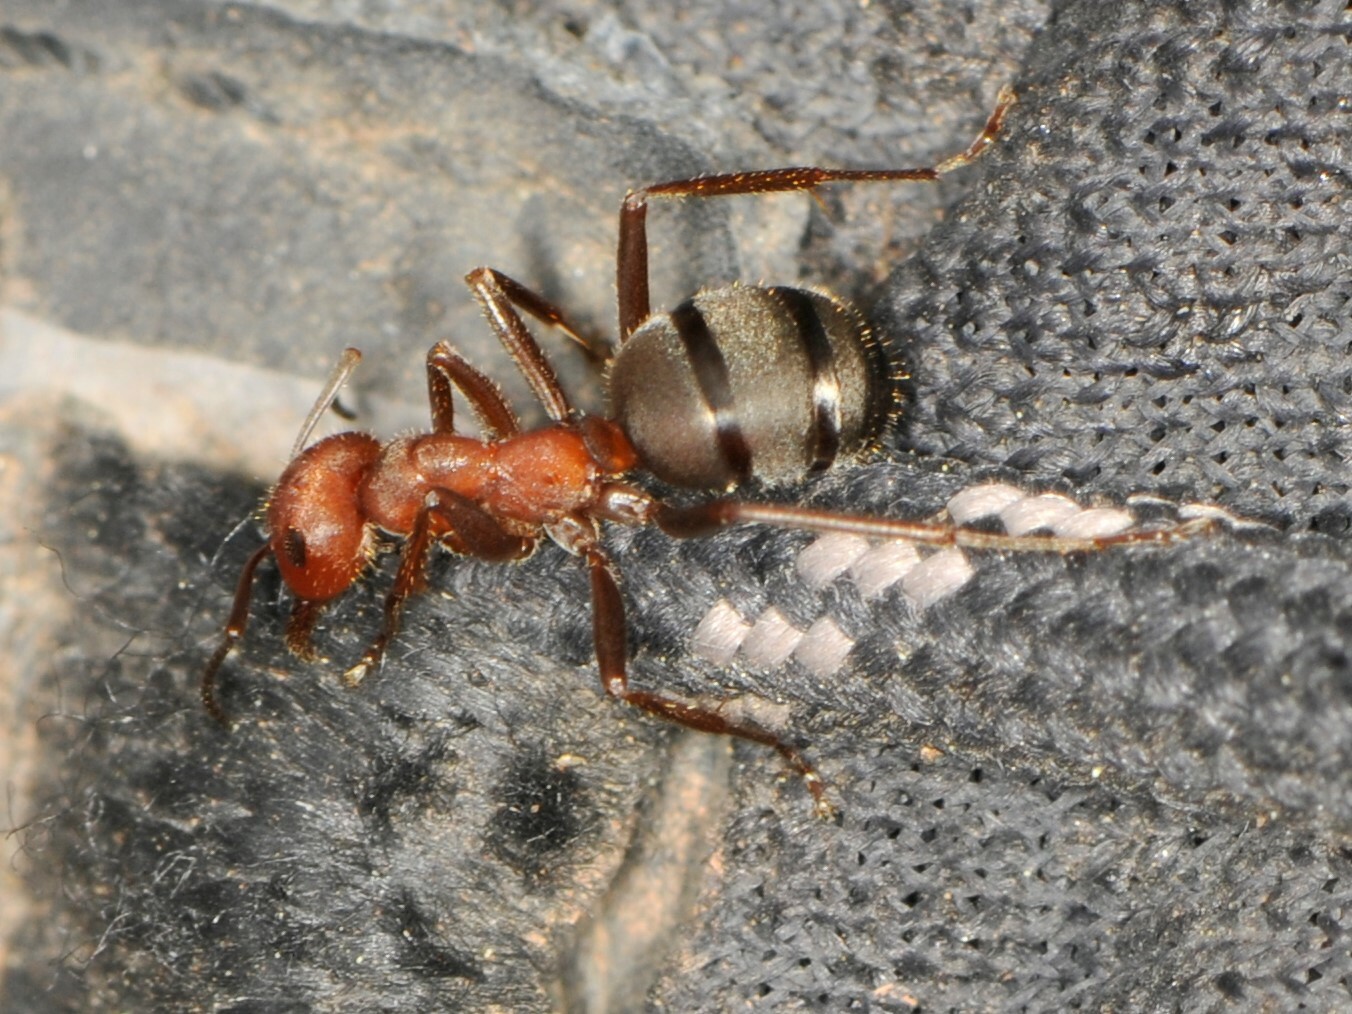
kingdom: Animalia
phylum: Arthropoda
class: Insecta
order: Hymenoptera
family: Formicidae
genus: Formica
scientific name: Formica
